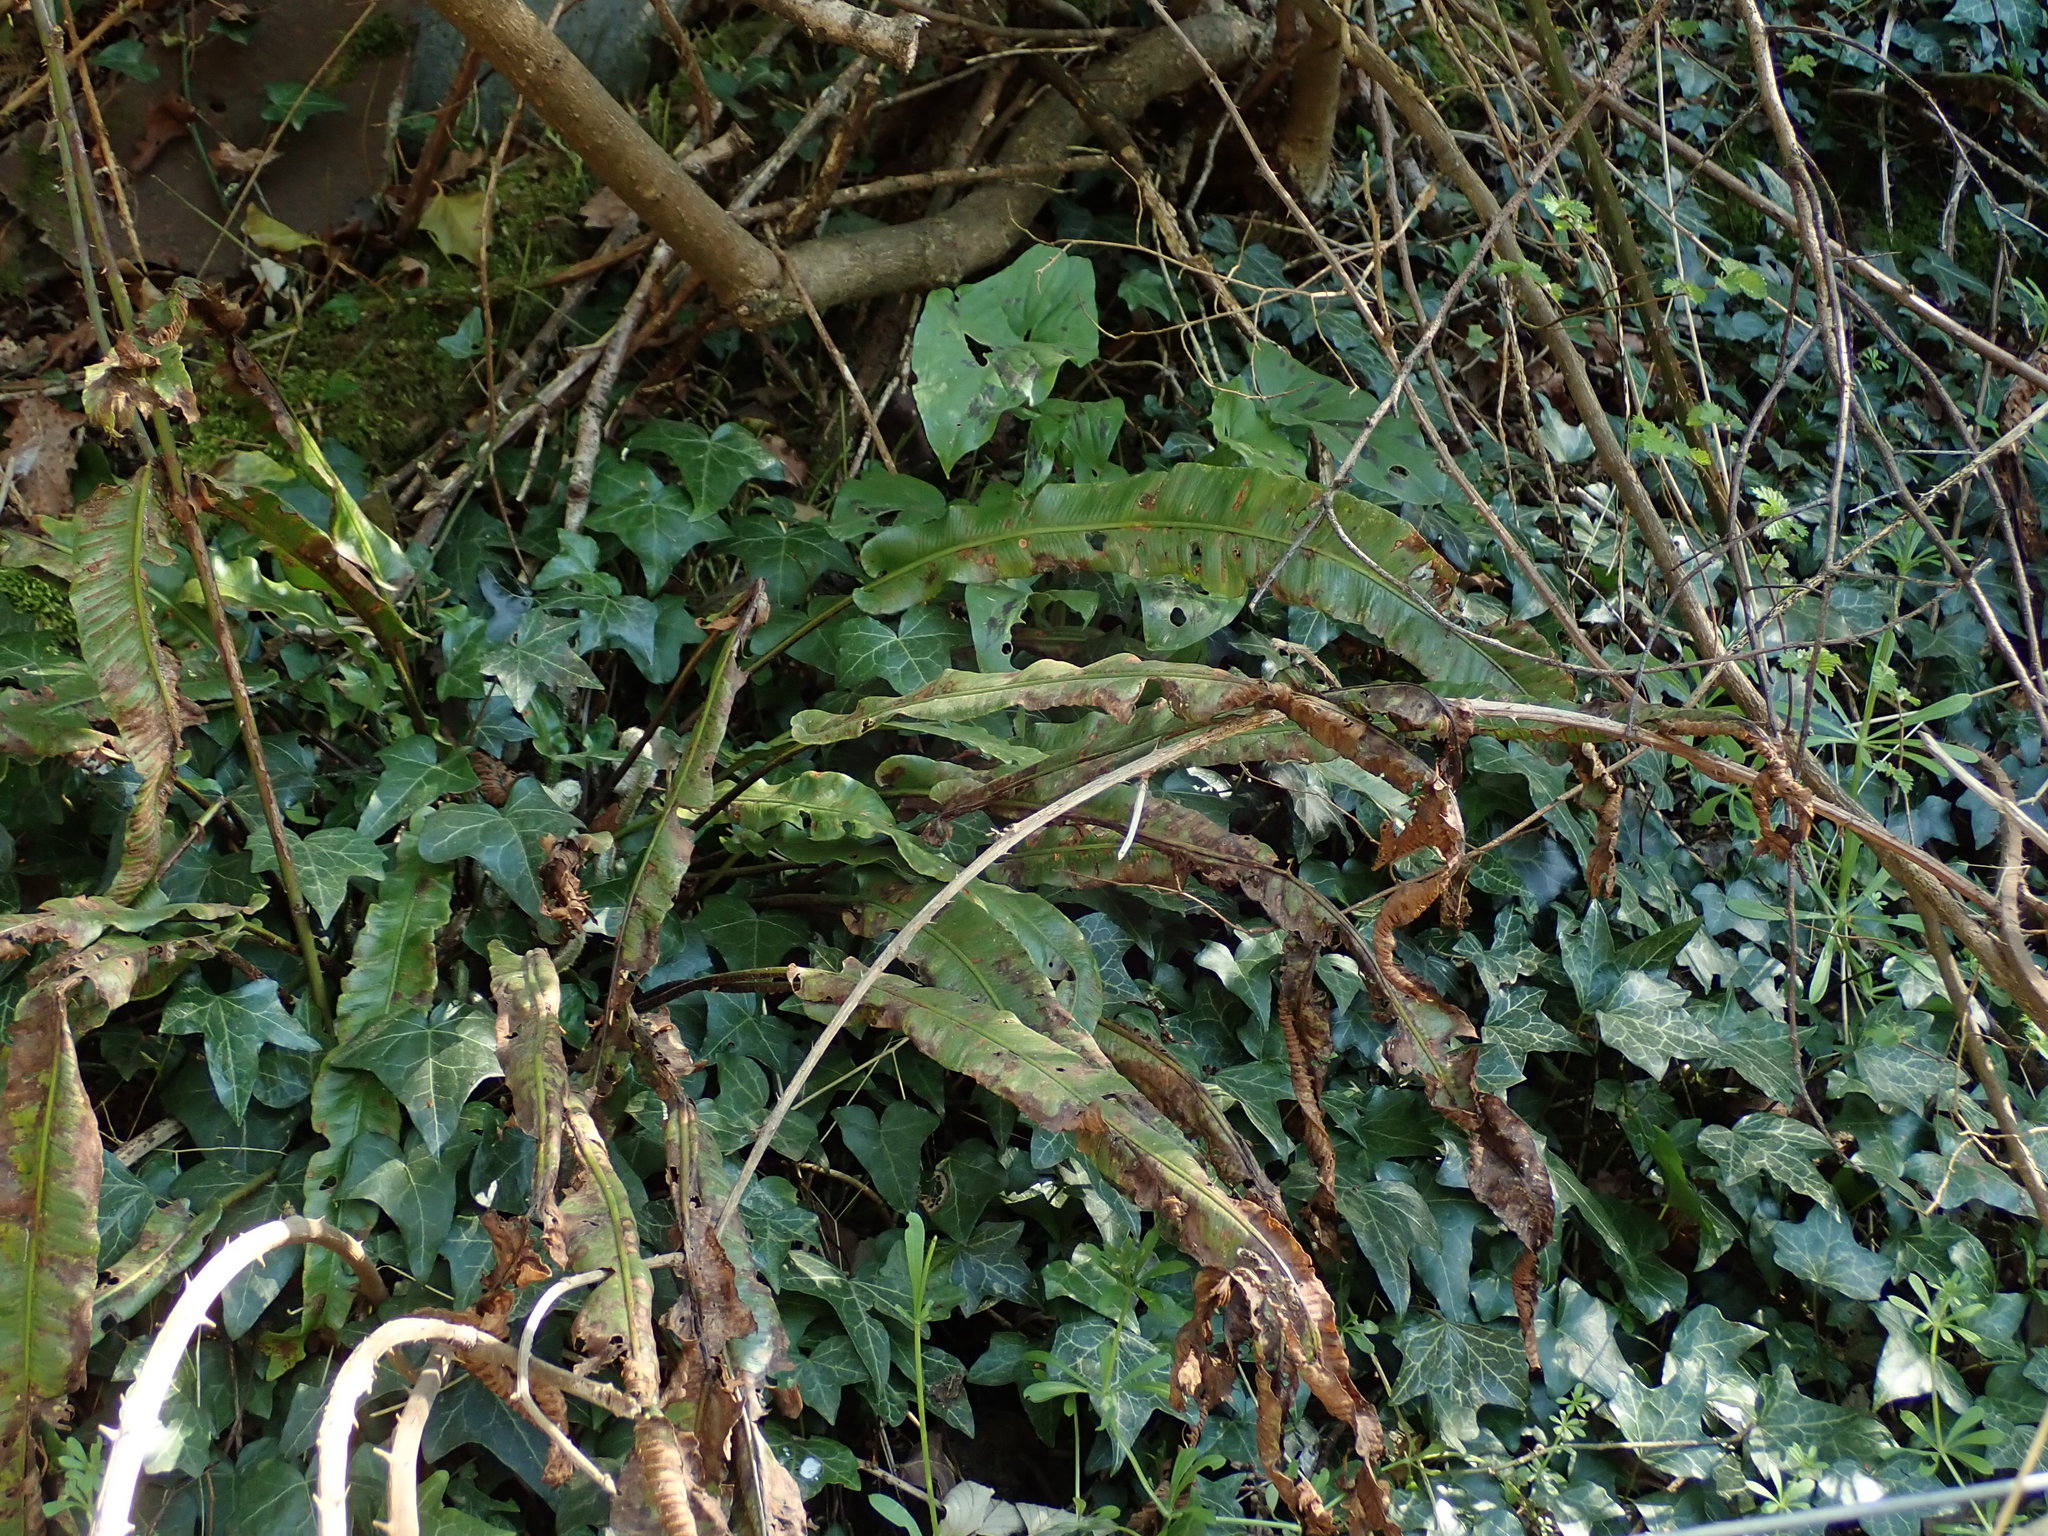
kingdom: Plantae
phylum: Tracheophyta
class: Polypodiopsida
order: Polypodiales
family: Aspleniaceae
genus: Asplenium
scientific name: Asplenium scolopendrium
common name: Hart's-tongue fern
